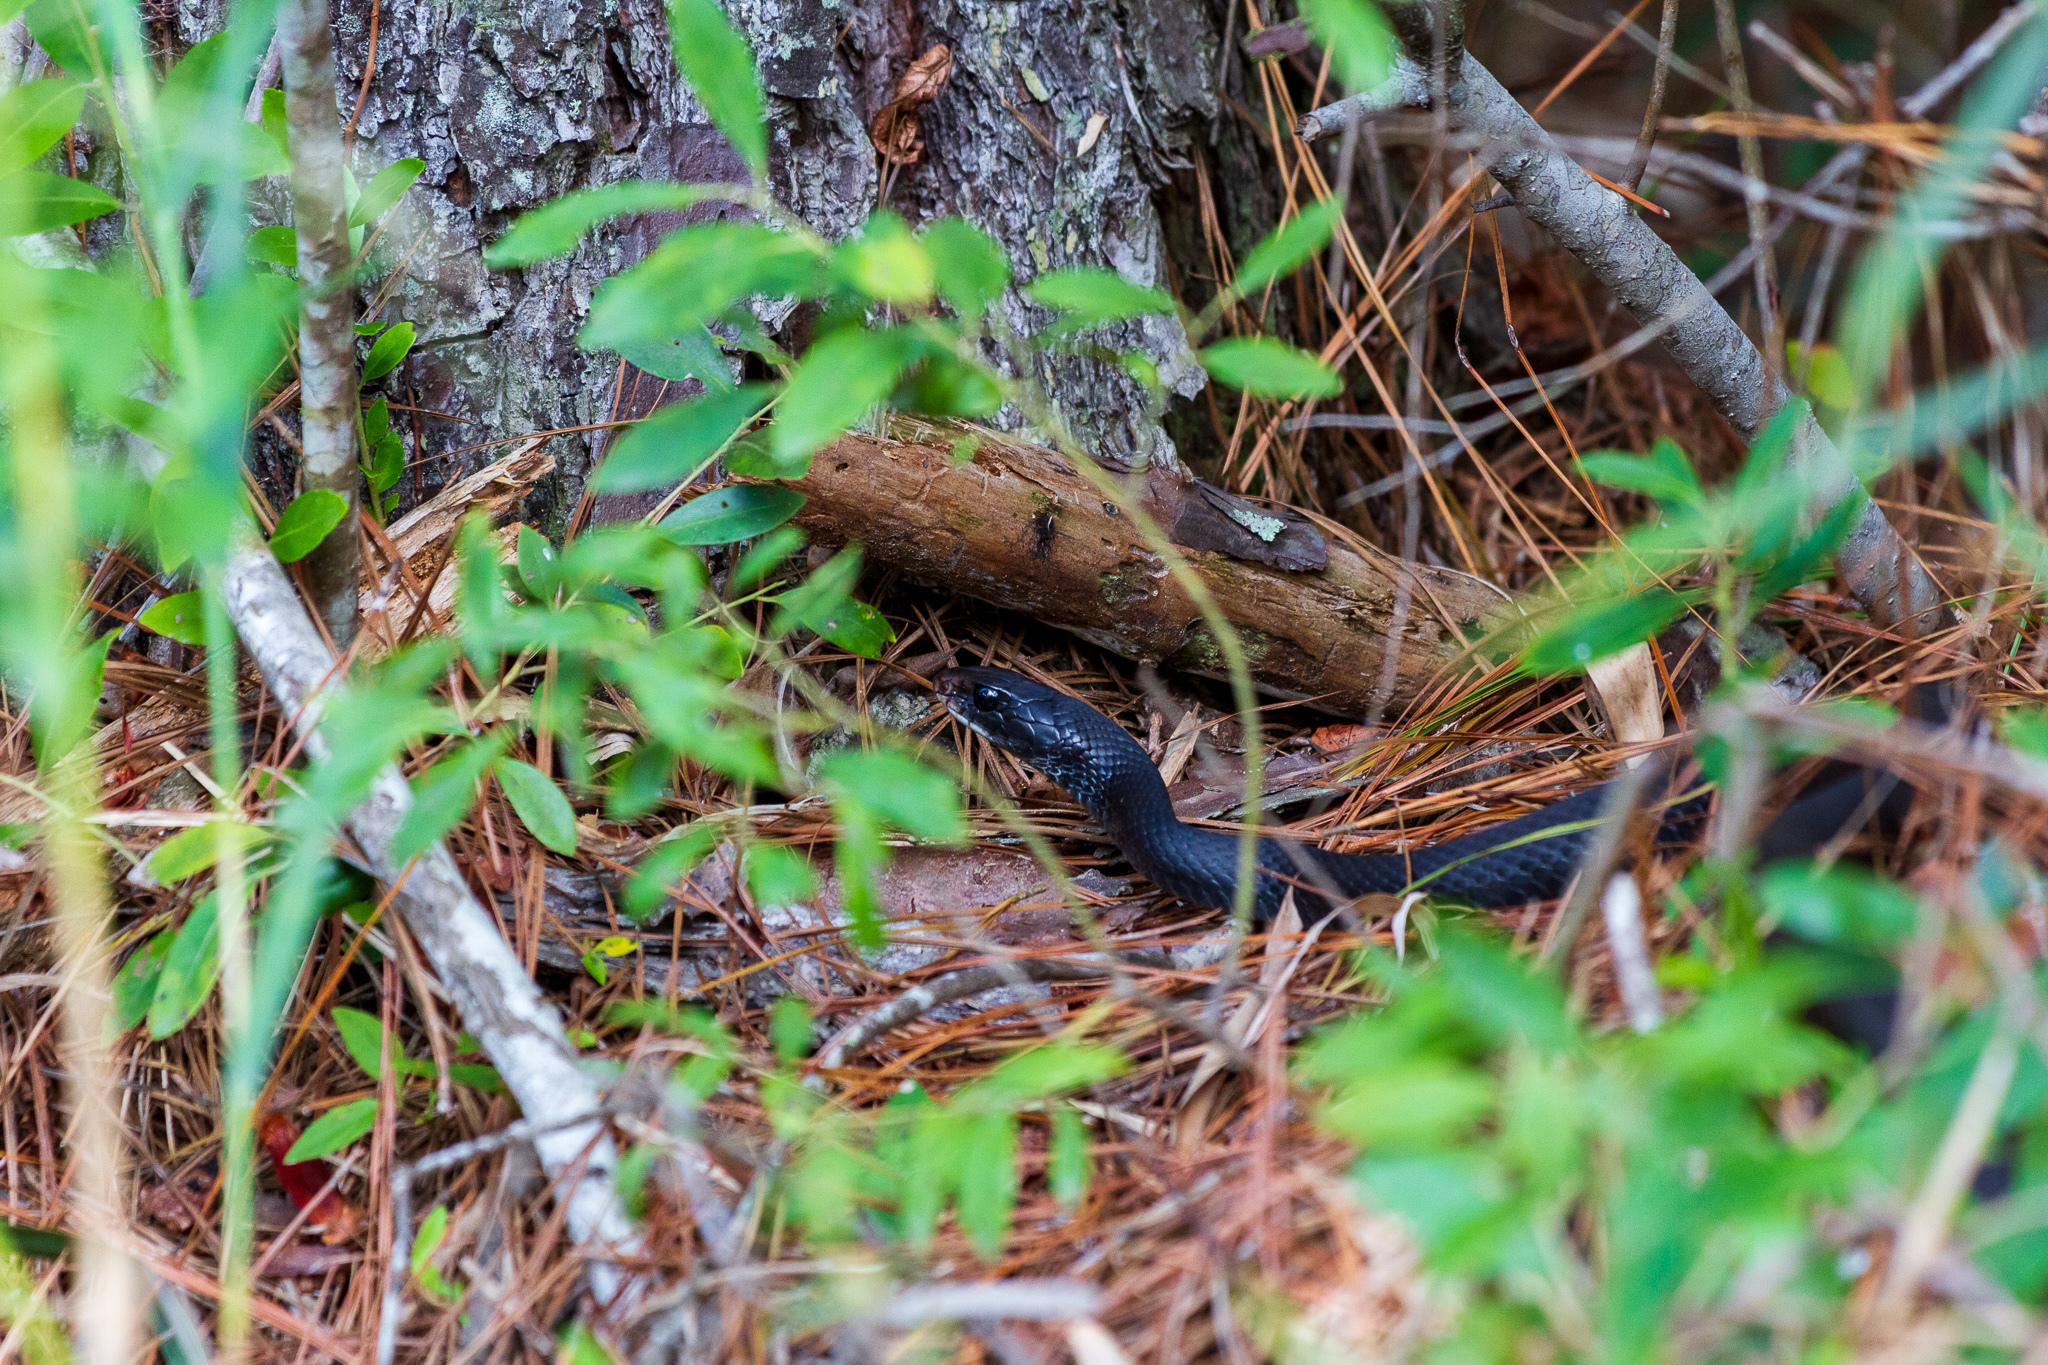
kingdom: Animalia
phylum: Chordata
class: Squamata
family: Colubridae
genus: Coluber
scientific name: Coluber constrictor
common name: Eastern racer
